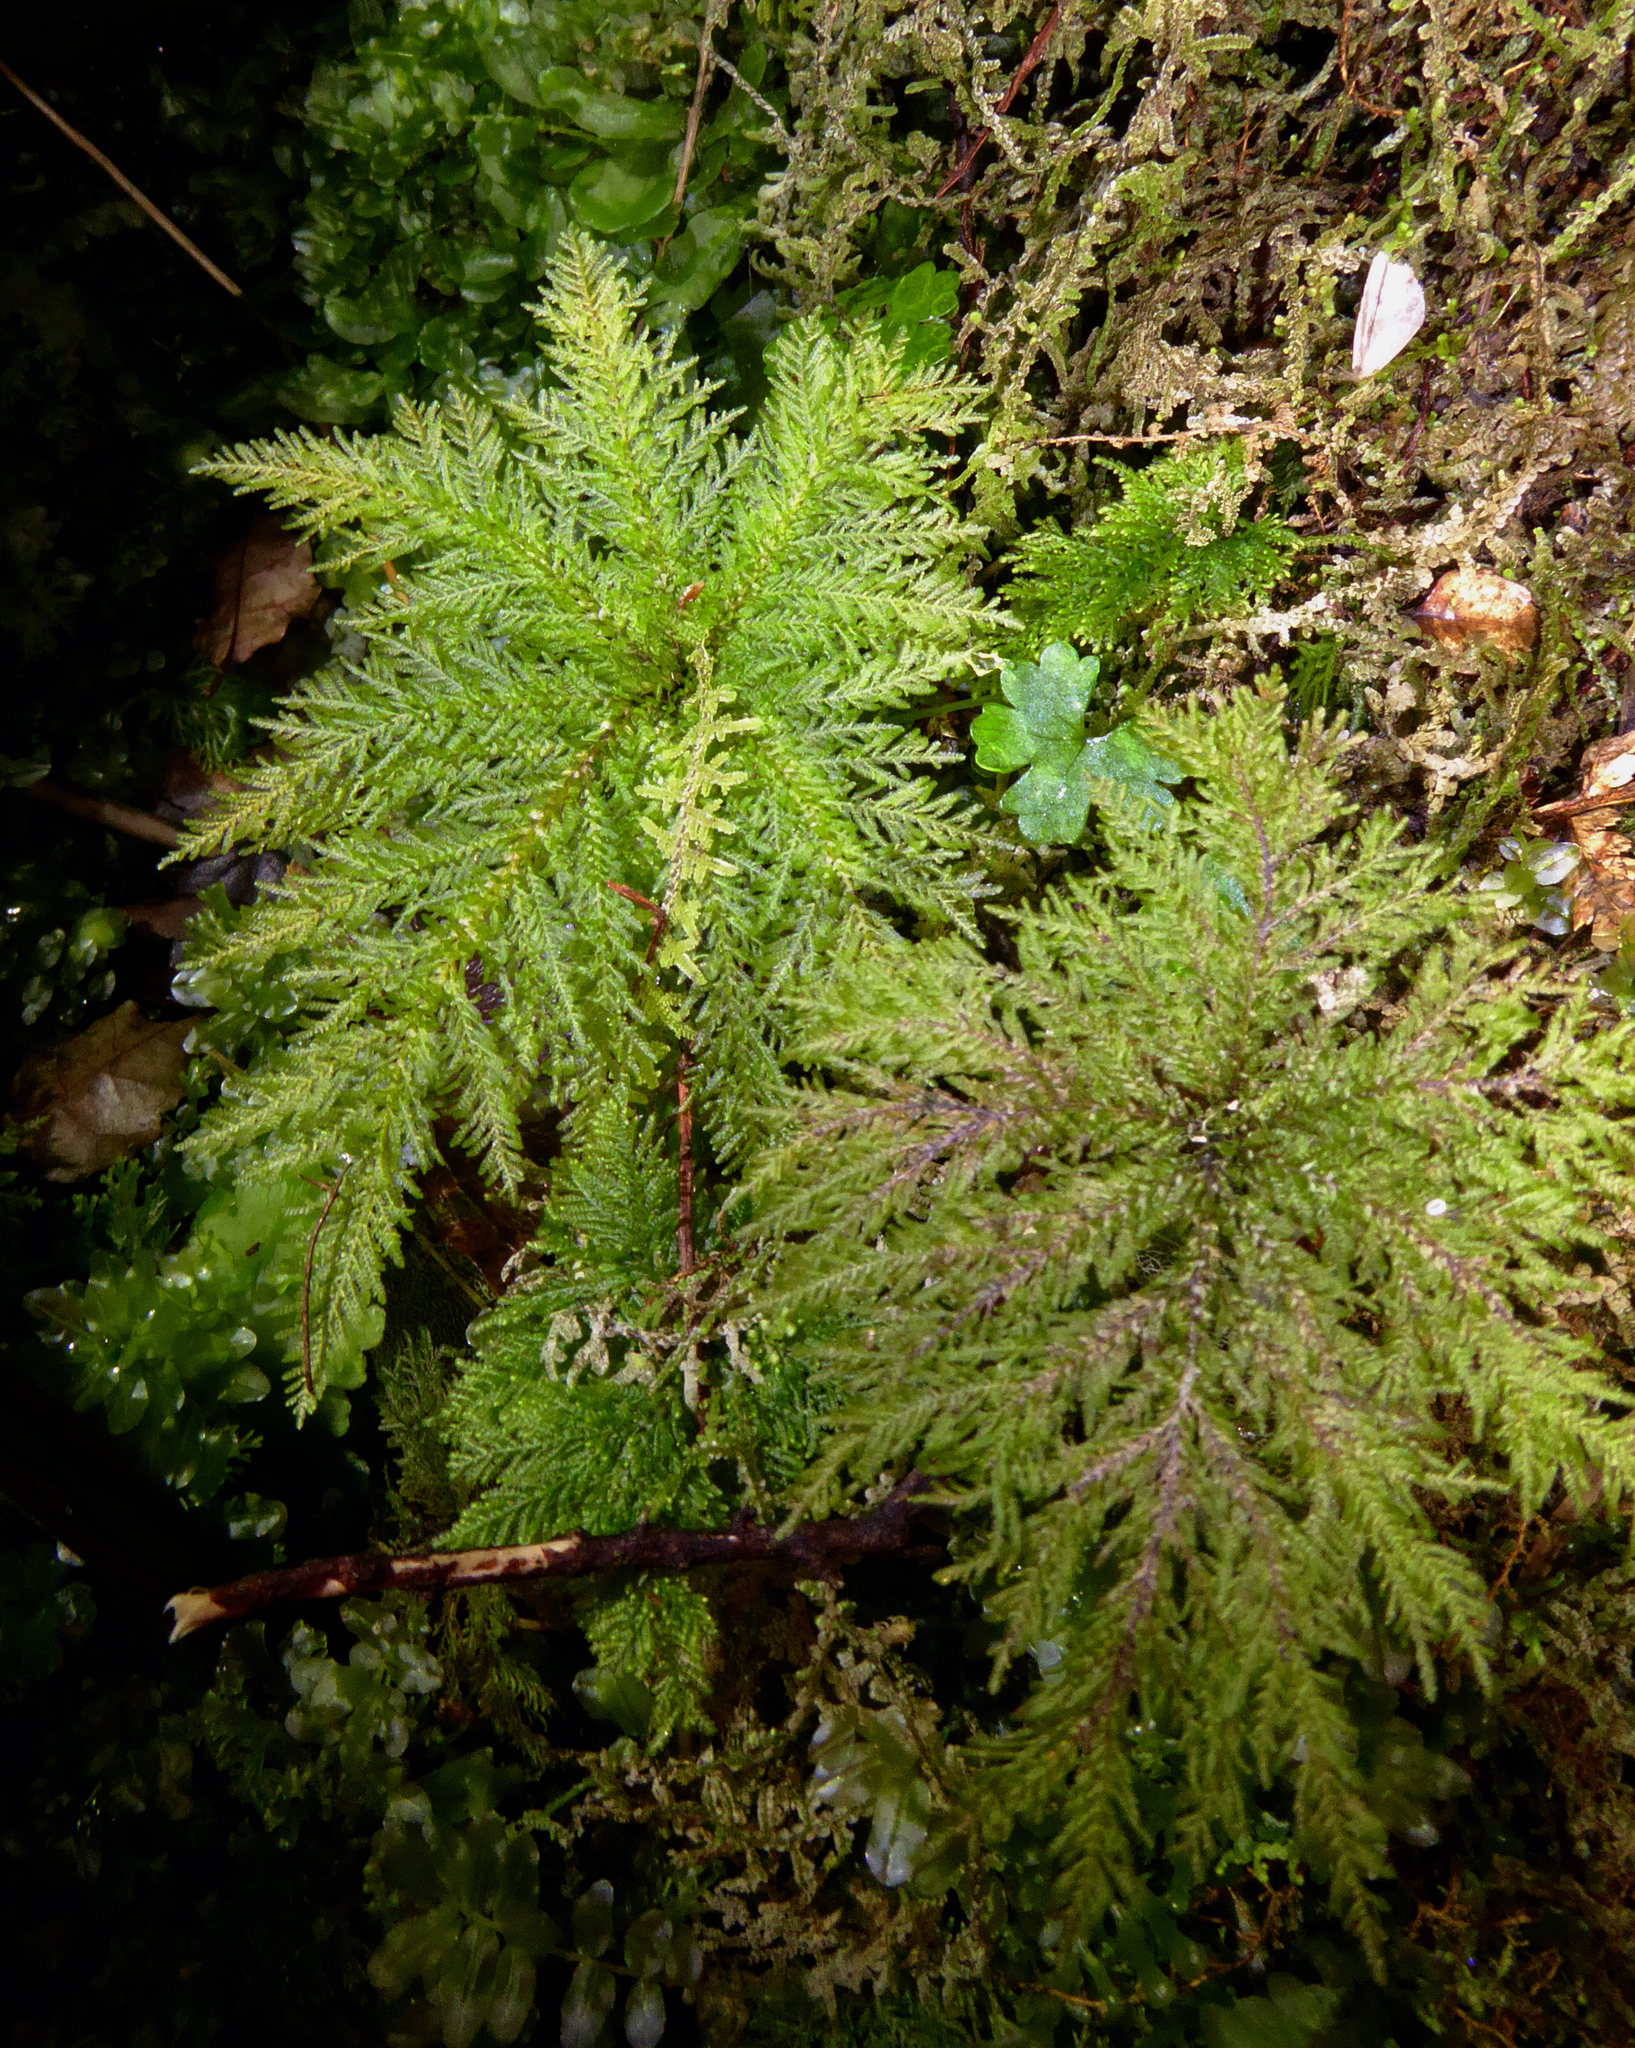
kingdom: Plantae
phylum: Bryophyta
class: Bryopsida
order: Hypopterygiales
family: Hypopterygiaceae
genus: Dendrohypopterygium
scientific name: Dendrohypopterygium filiculiforme
